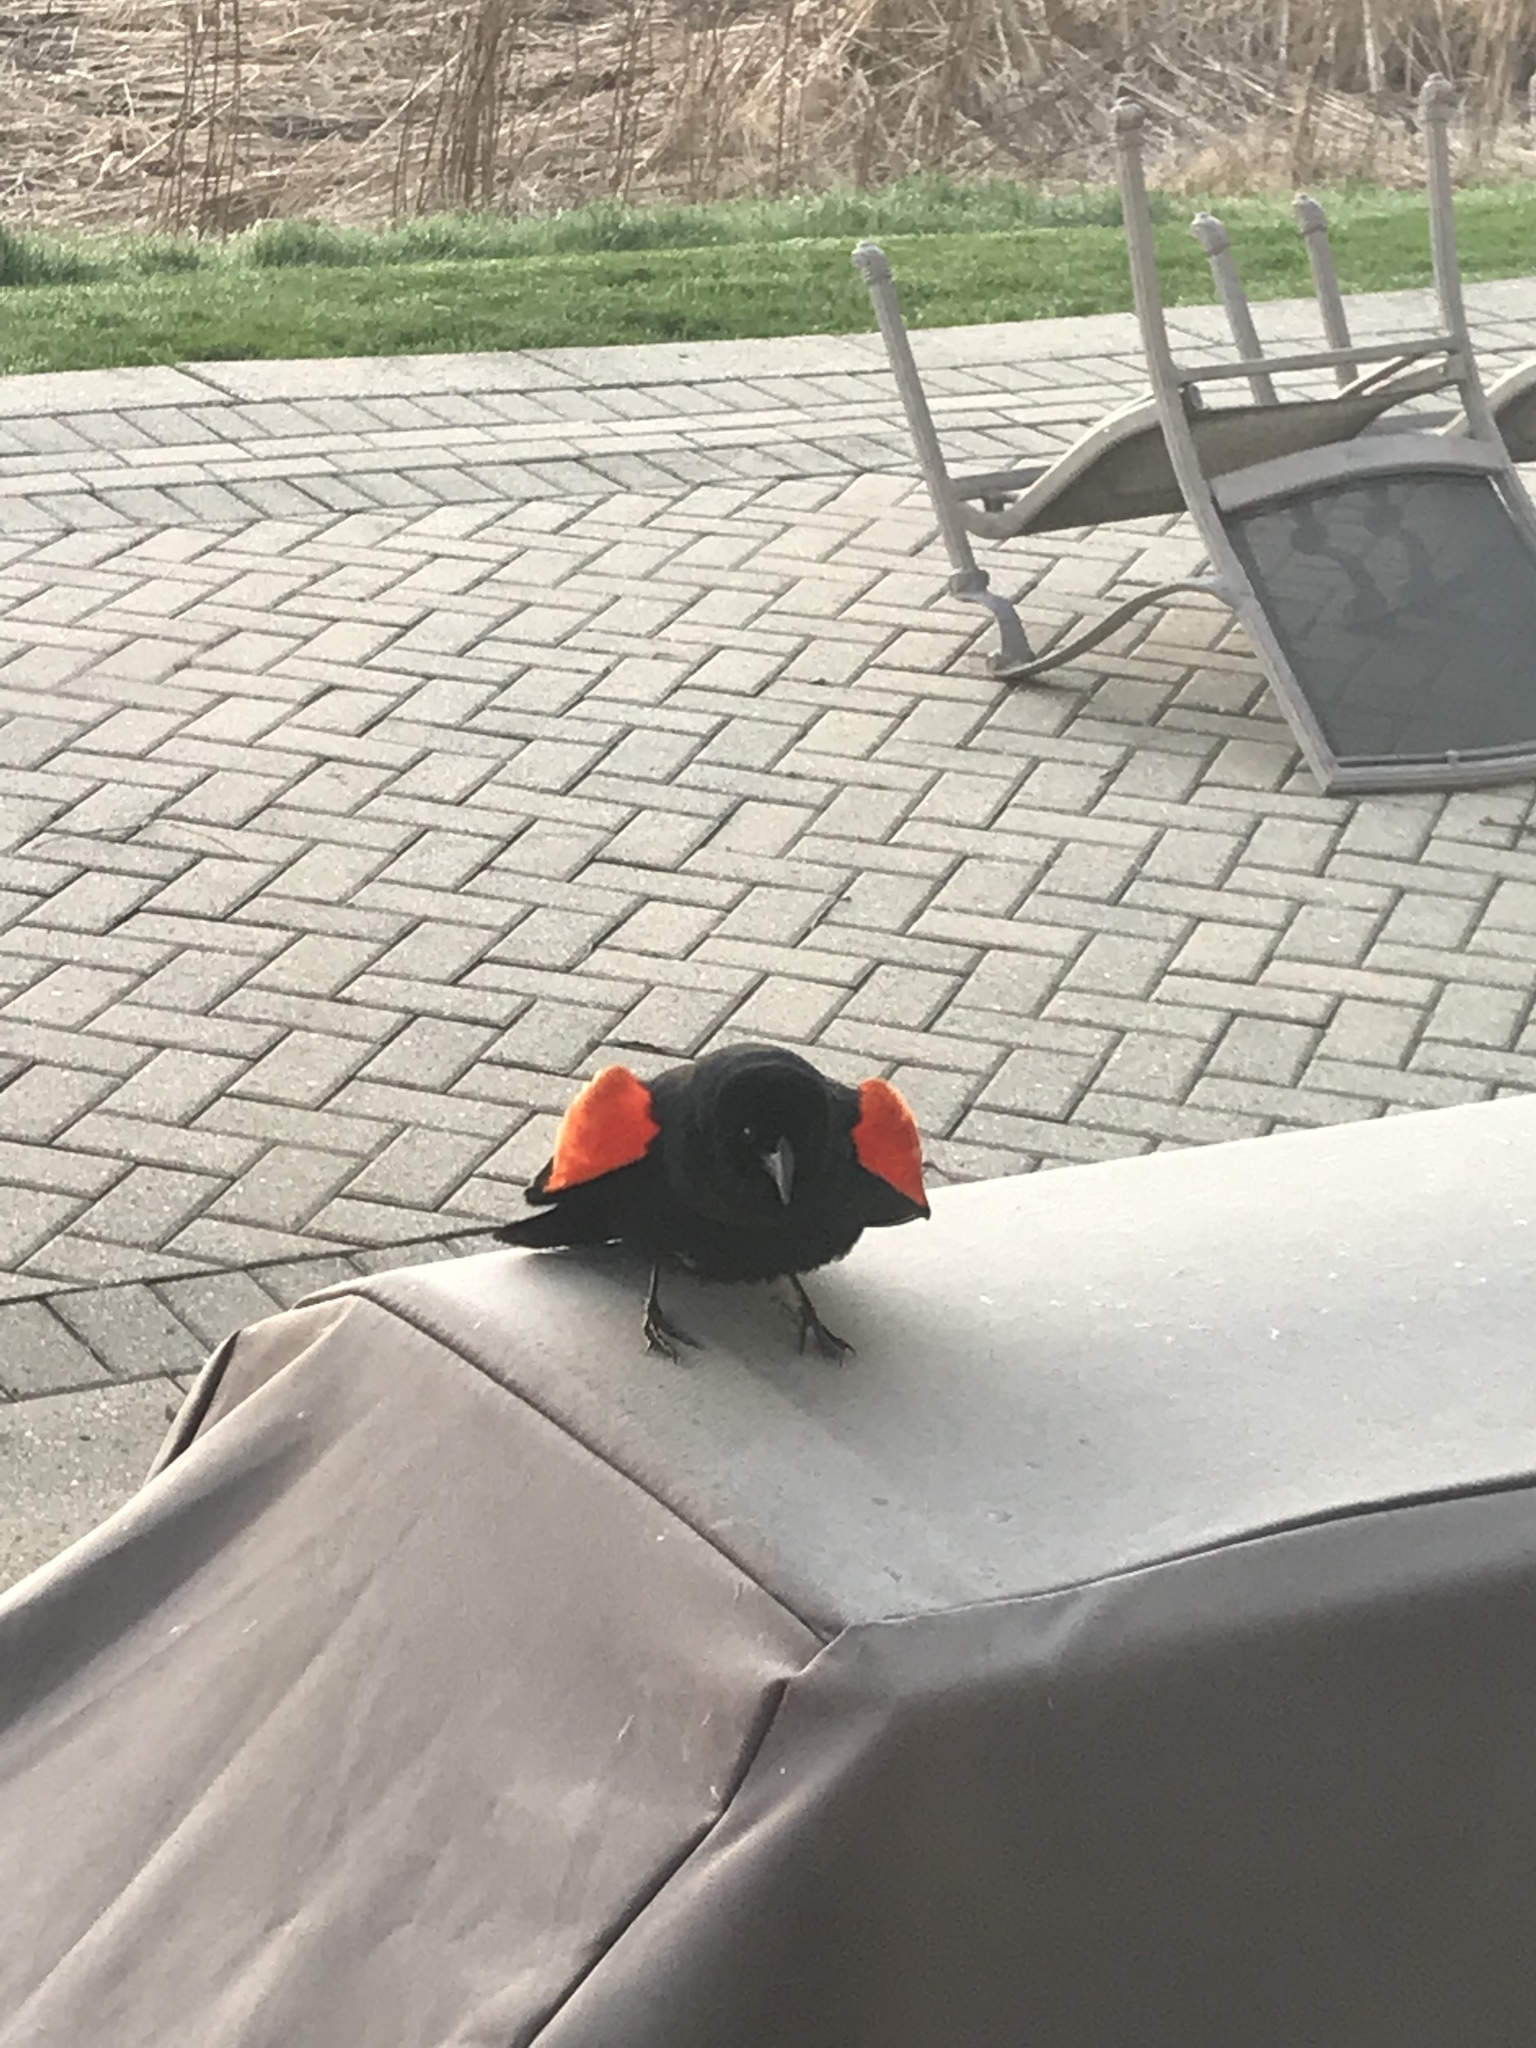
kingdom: Animalia
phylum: Chordata
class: Aves
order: Passeriformes
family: Icteridae
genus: Agelaius
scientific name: Agelaius phoeniceus
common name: Red-winged blackbird
